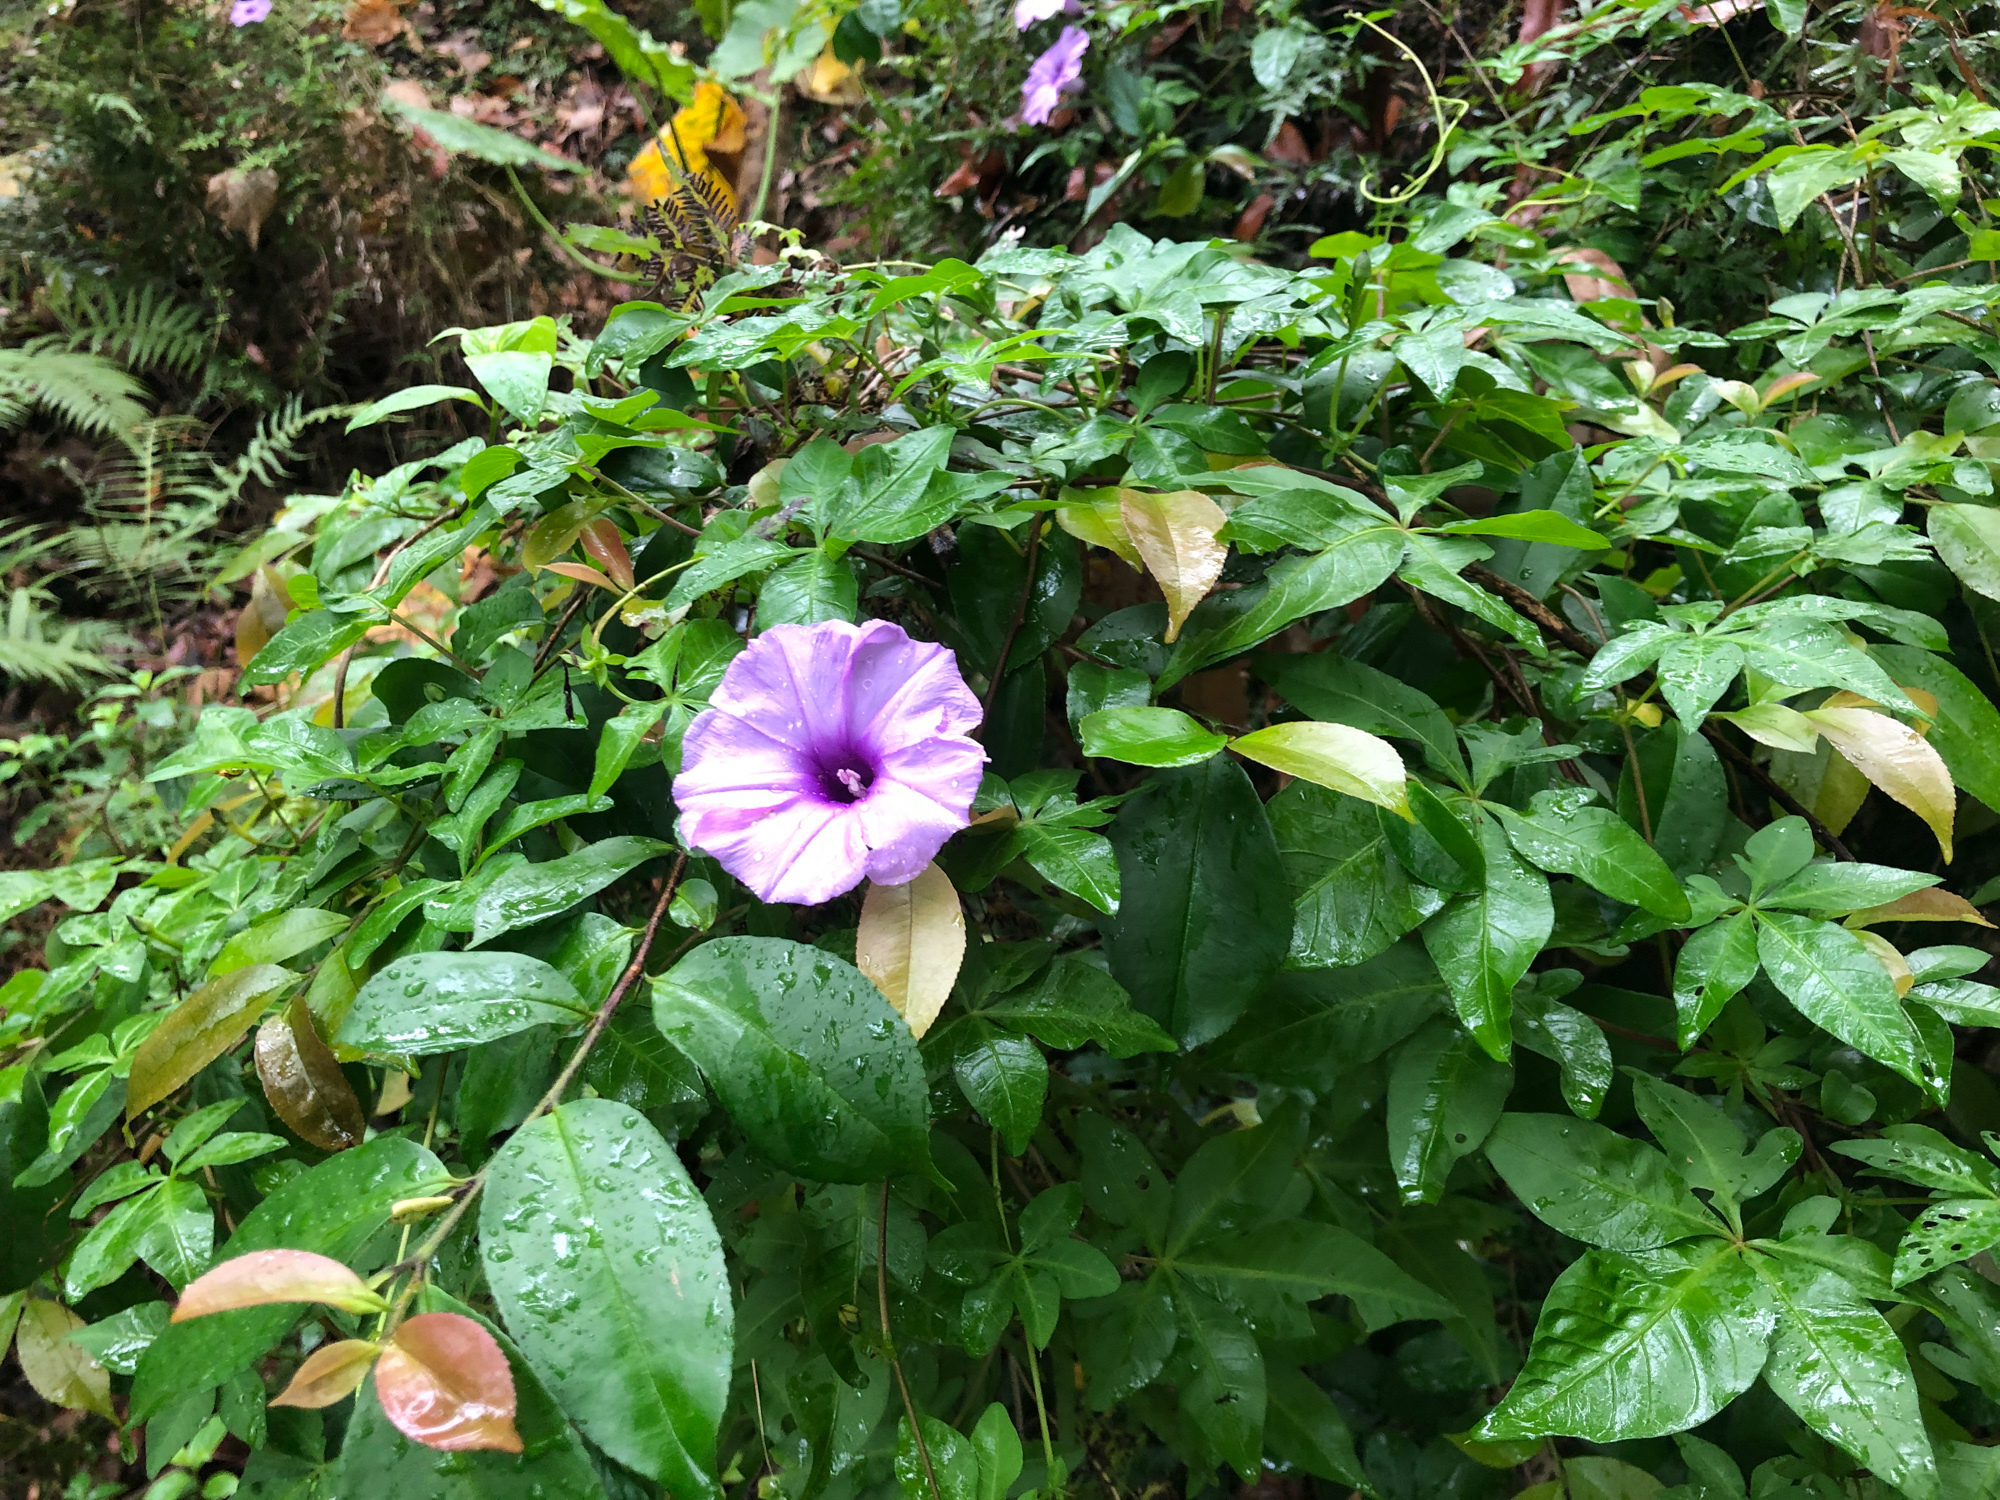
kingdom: Plantae
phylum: Tracheophyta
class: Magnoliopsida
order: Solanales
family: Convolvulaceae
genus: Ipomoea
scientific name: Ipomoea cairica
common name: Mile a minute vine
